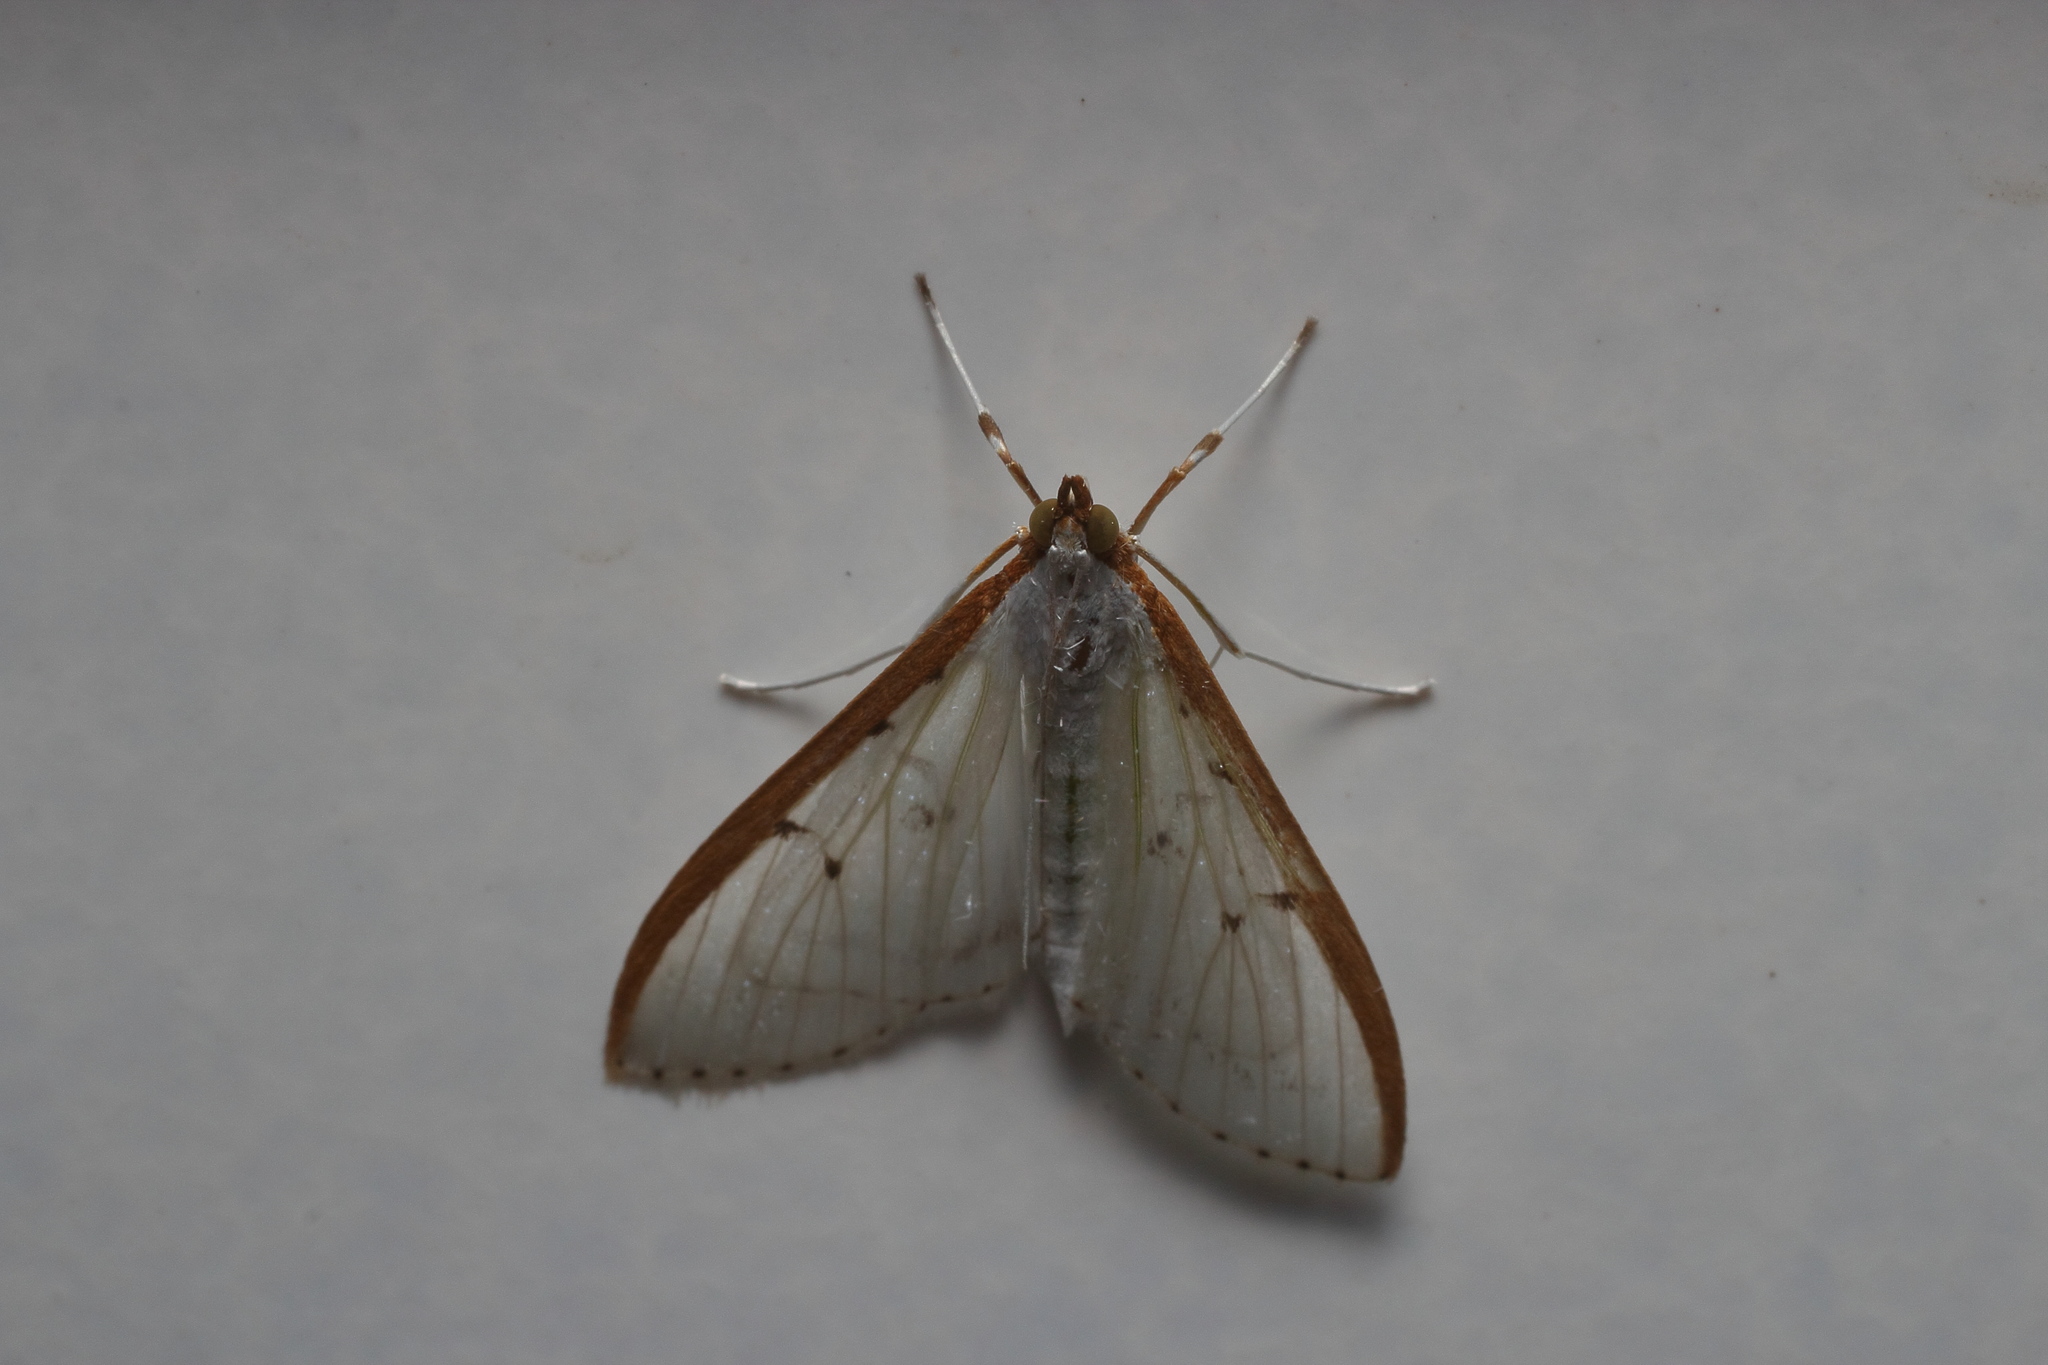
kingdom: Animalia
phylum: Arthropoda
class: Insecta
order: Lepidoptera
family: Crambidae
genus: Palpita
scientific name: Palpita nigropunctalis
